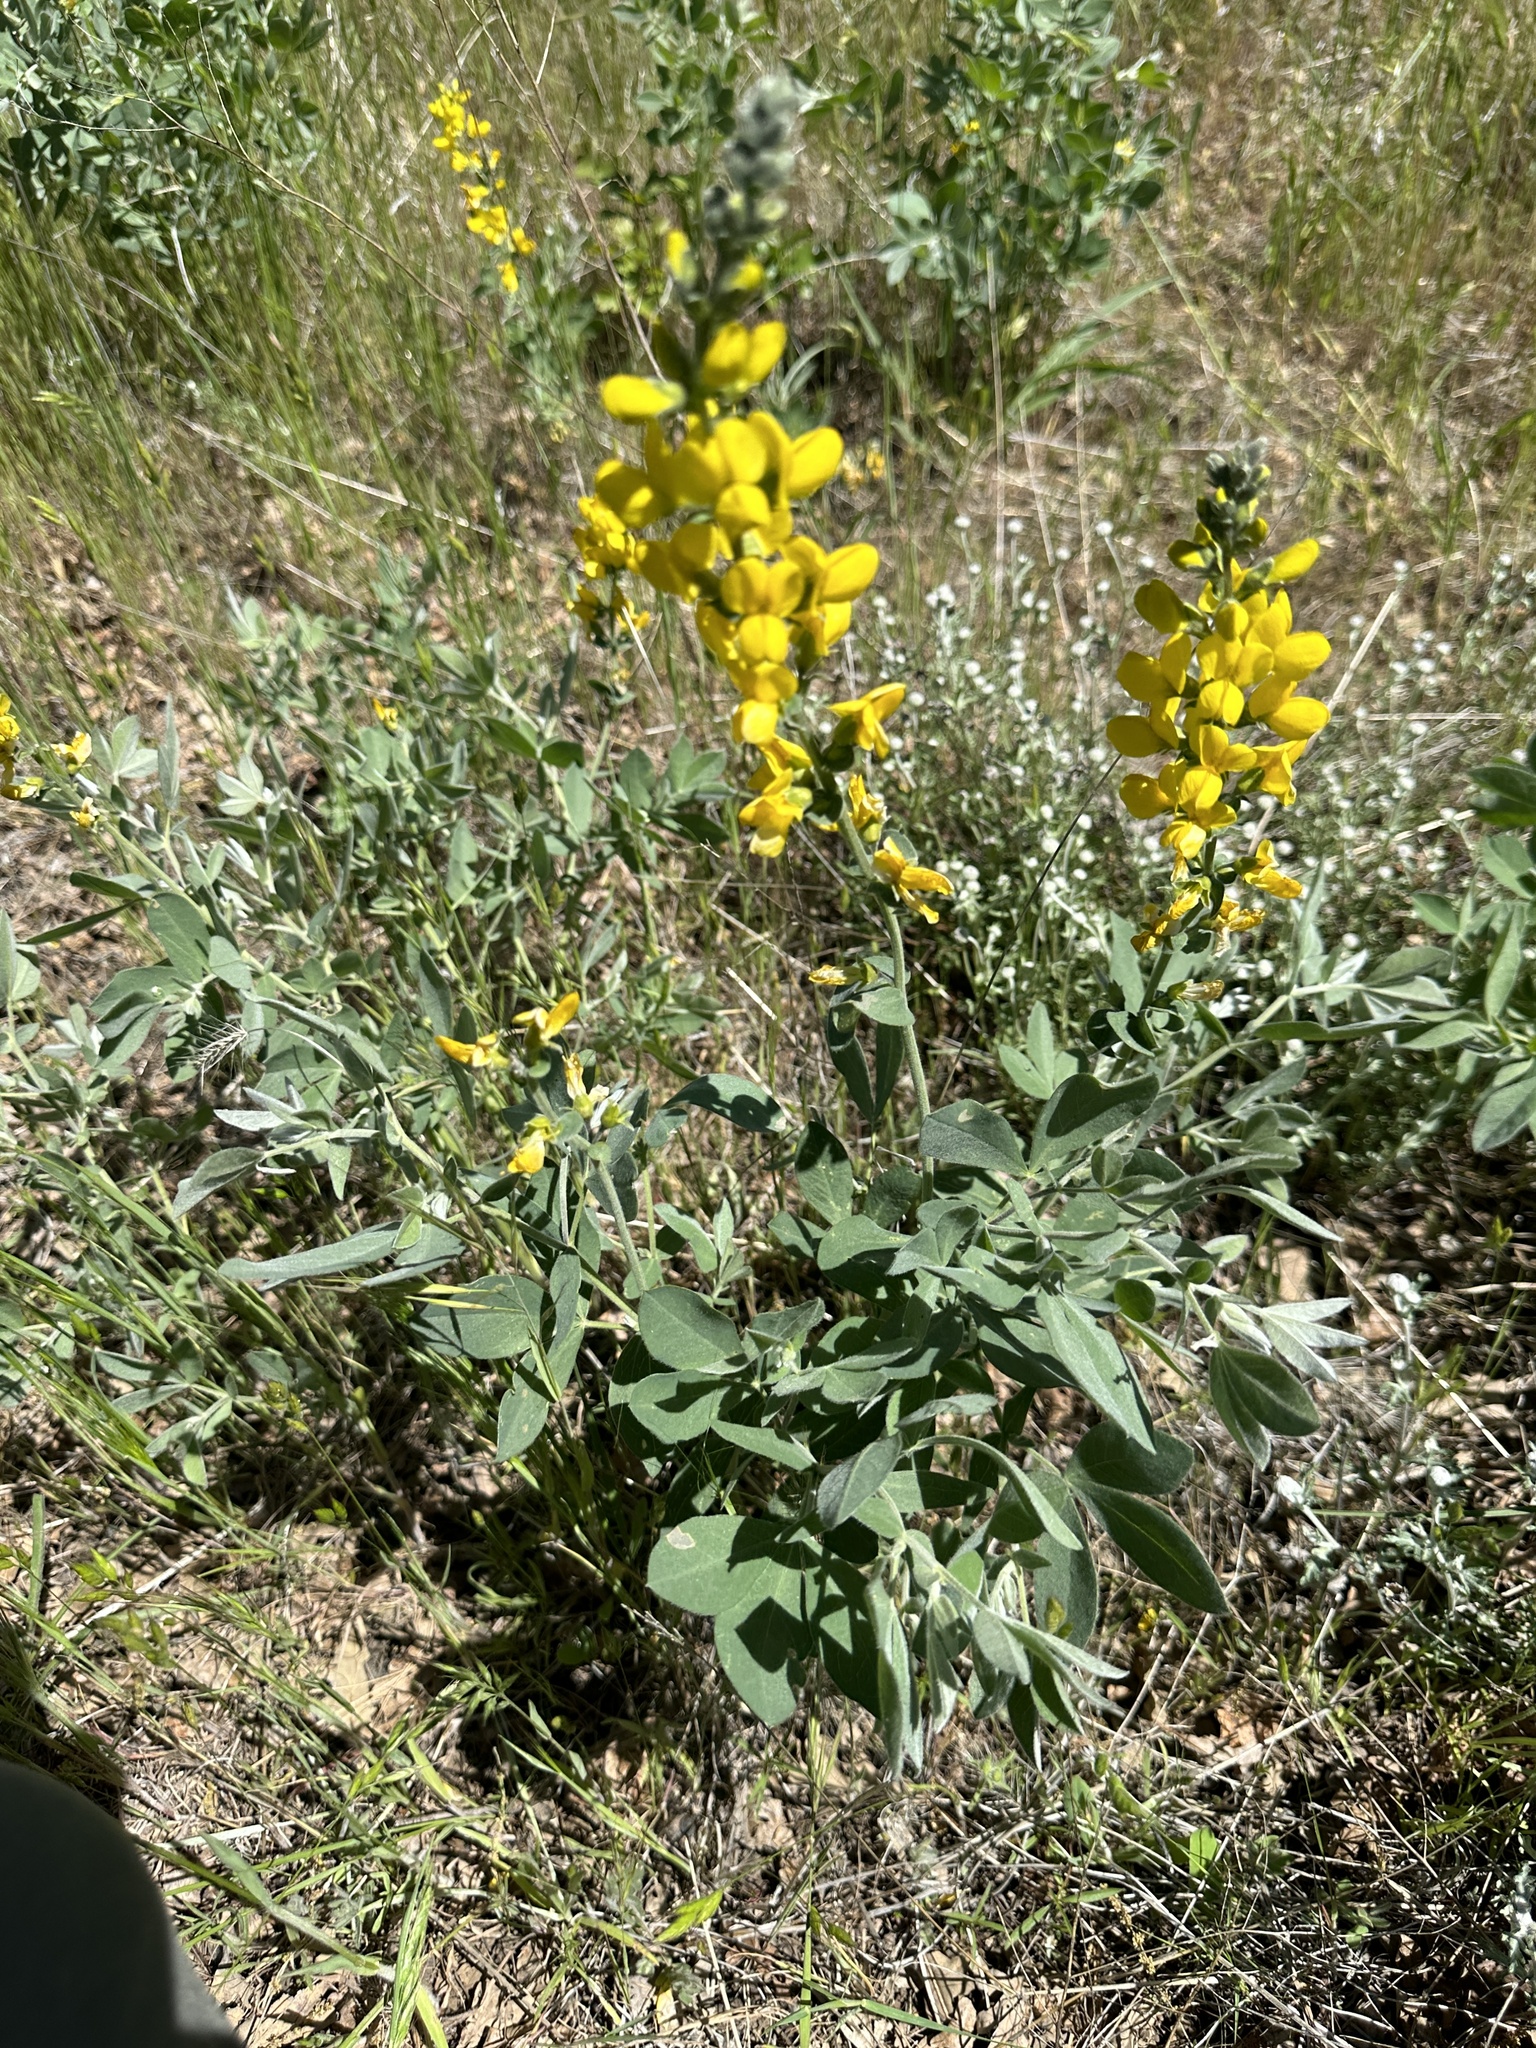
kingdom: Plantae
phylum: Tracheophyta
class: Magnoliopsida
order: Fabales
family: Fabaceae
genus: Thermopsis
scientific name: Thermopsis californica
